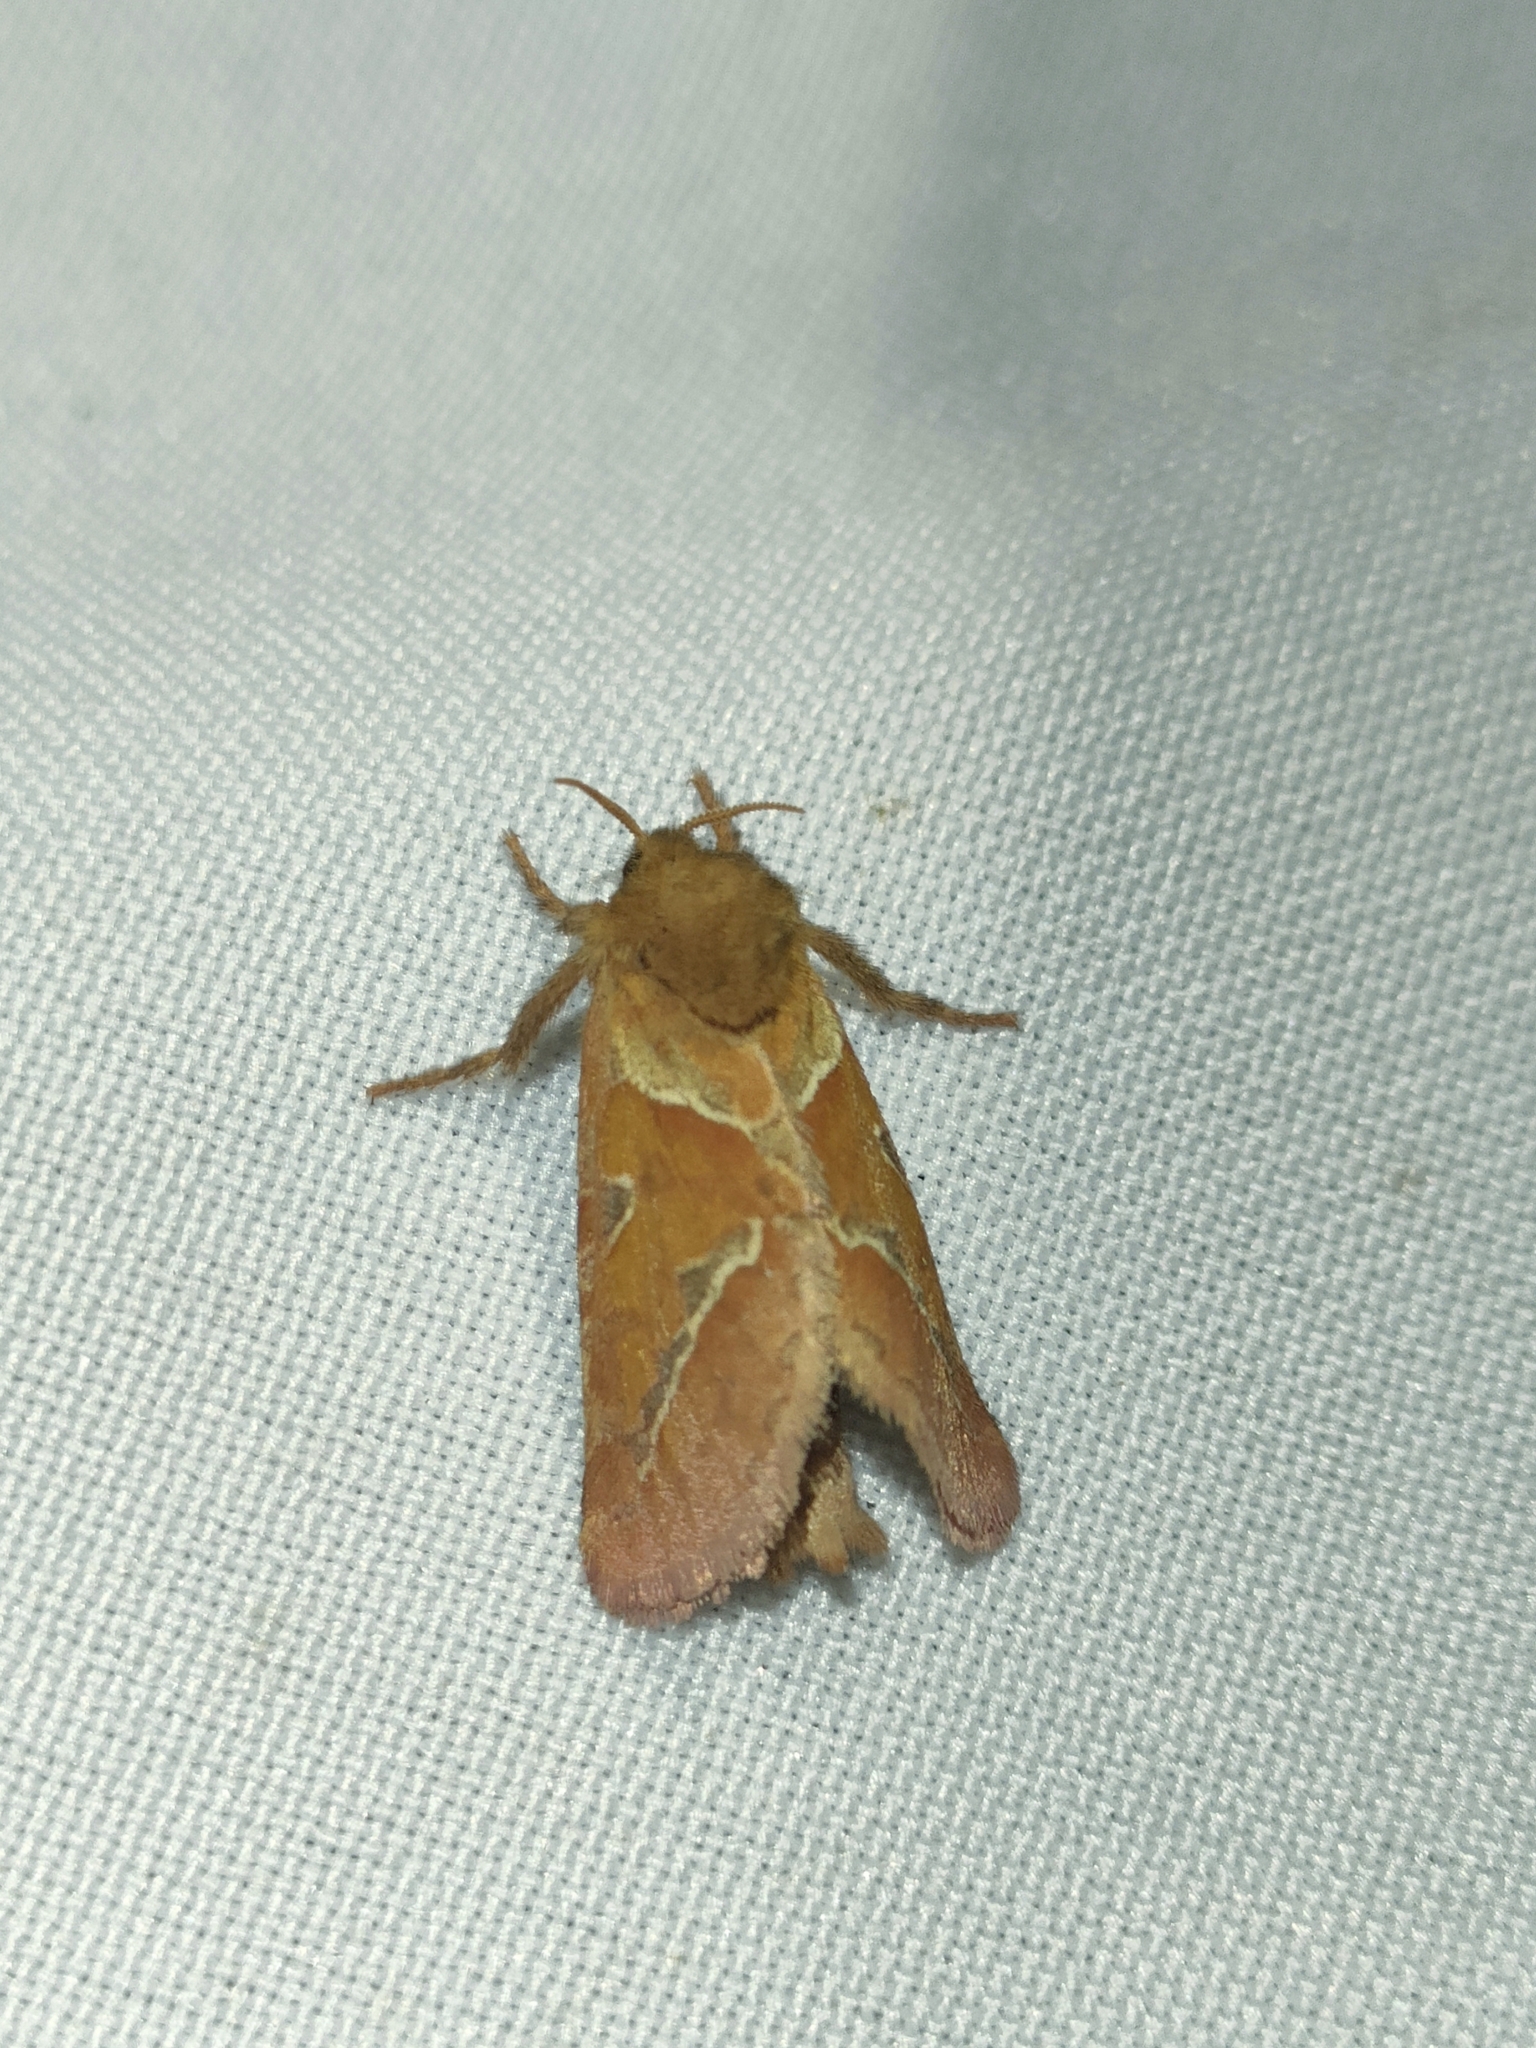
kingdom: Animalia
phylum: Arthropoda
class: Insecta
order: Lepidoptera
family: Hepialidae
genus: Triodia
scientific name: Triodia sylvina
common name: Orange swift
